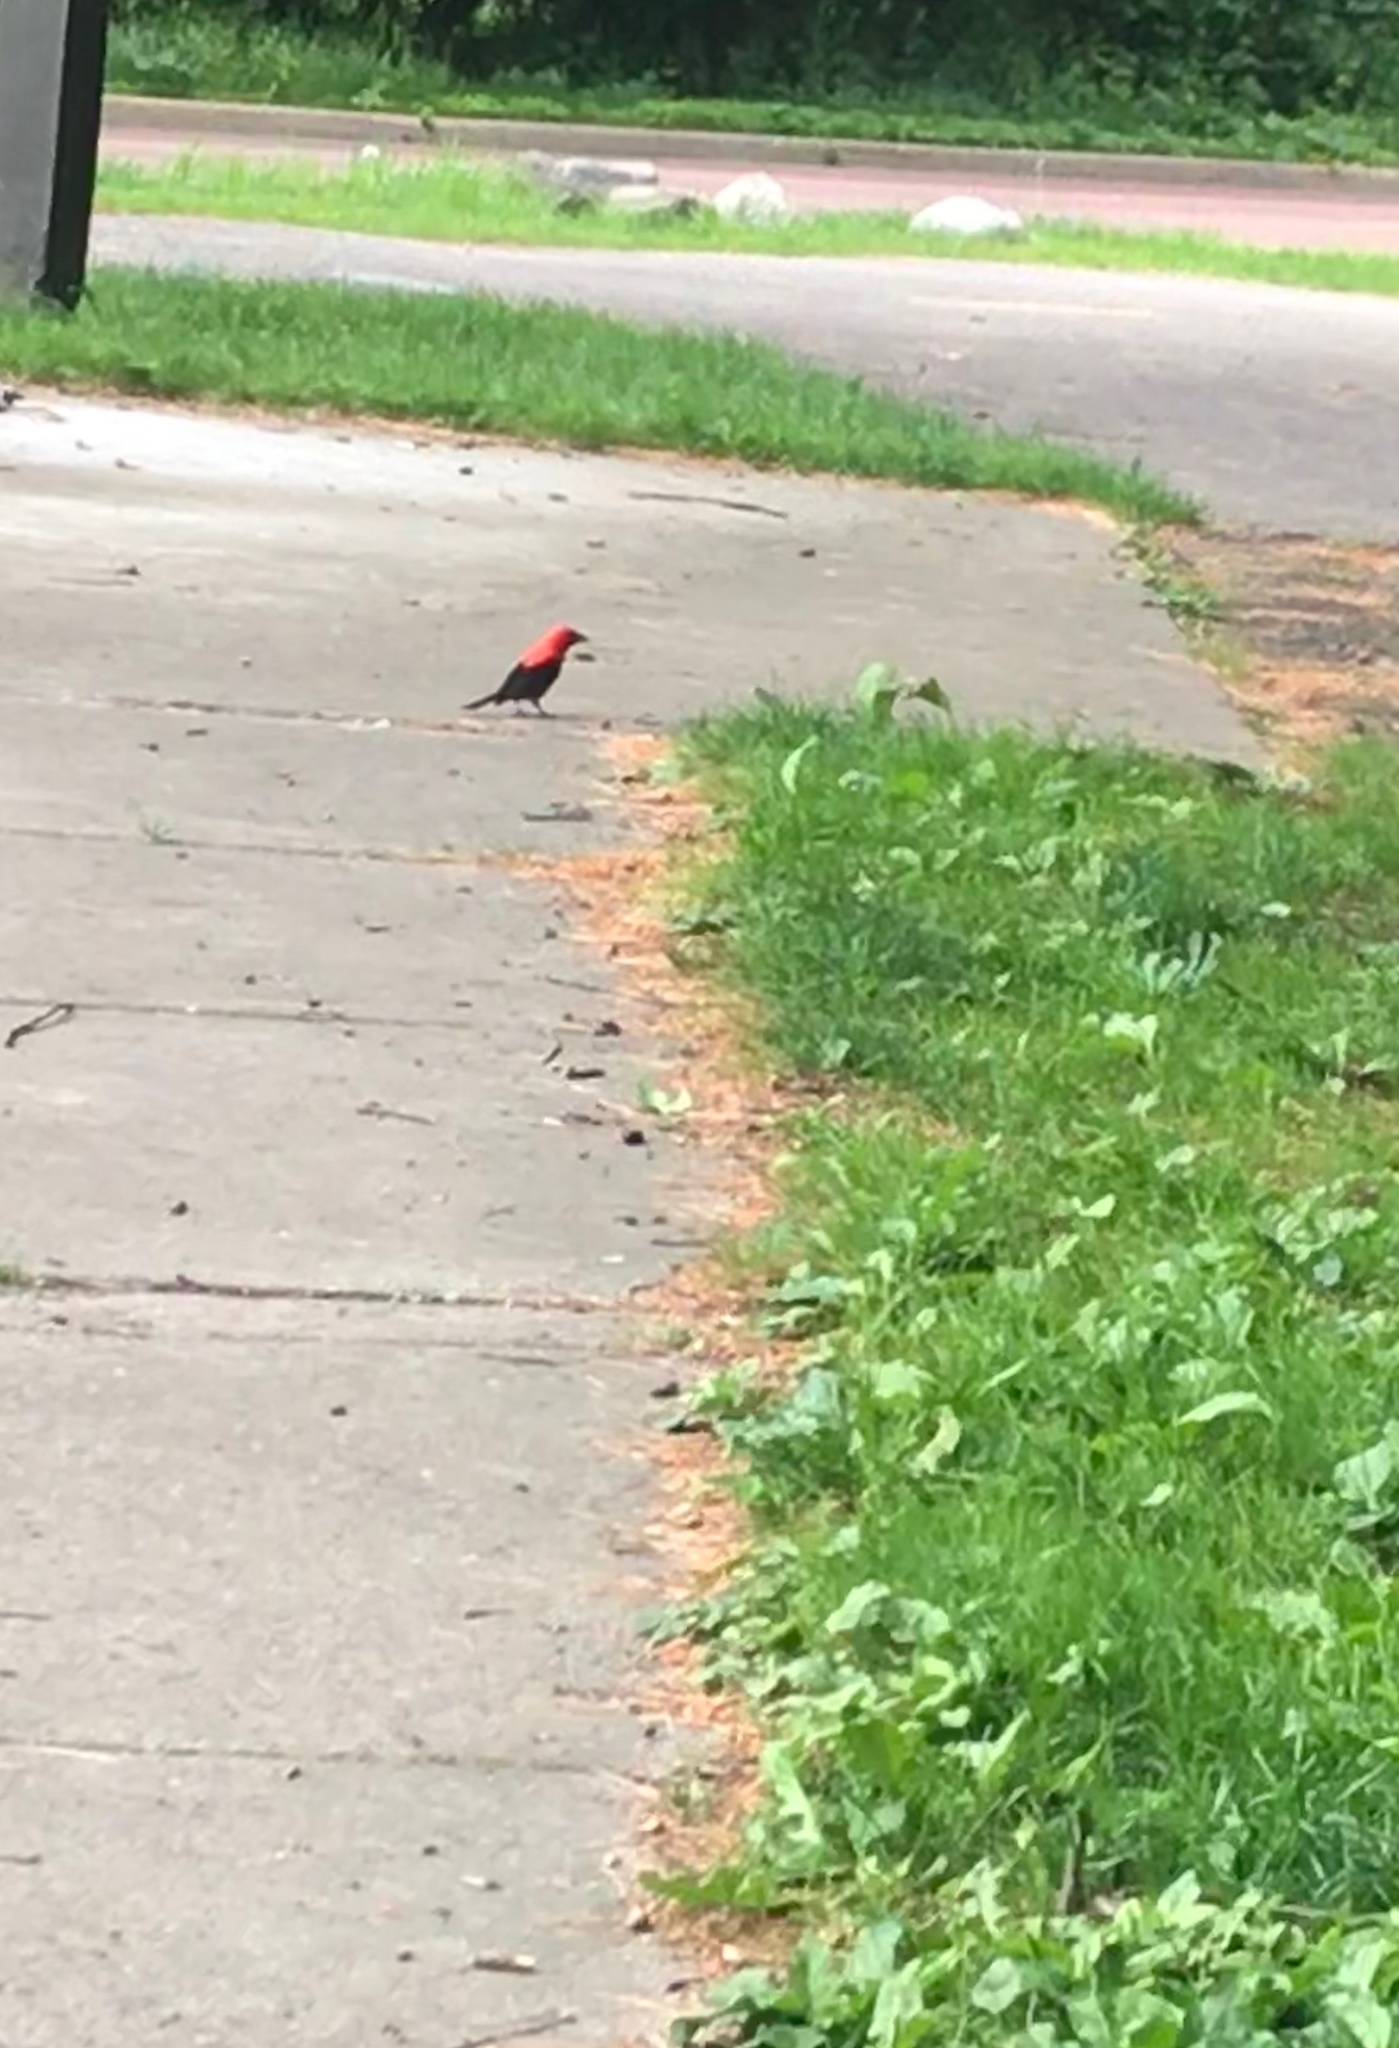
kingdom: Animalia
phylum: Chordata
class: Aves
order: Passeriformes
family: Cardinalidae
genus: Piranga
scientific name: Piranga olivacea
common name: Scarlet tanager
